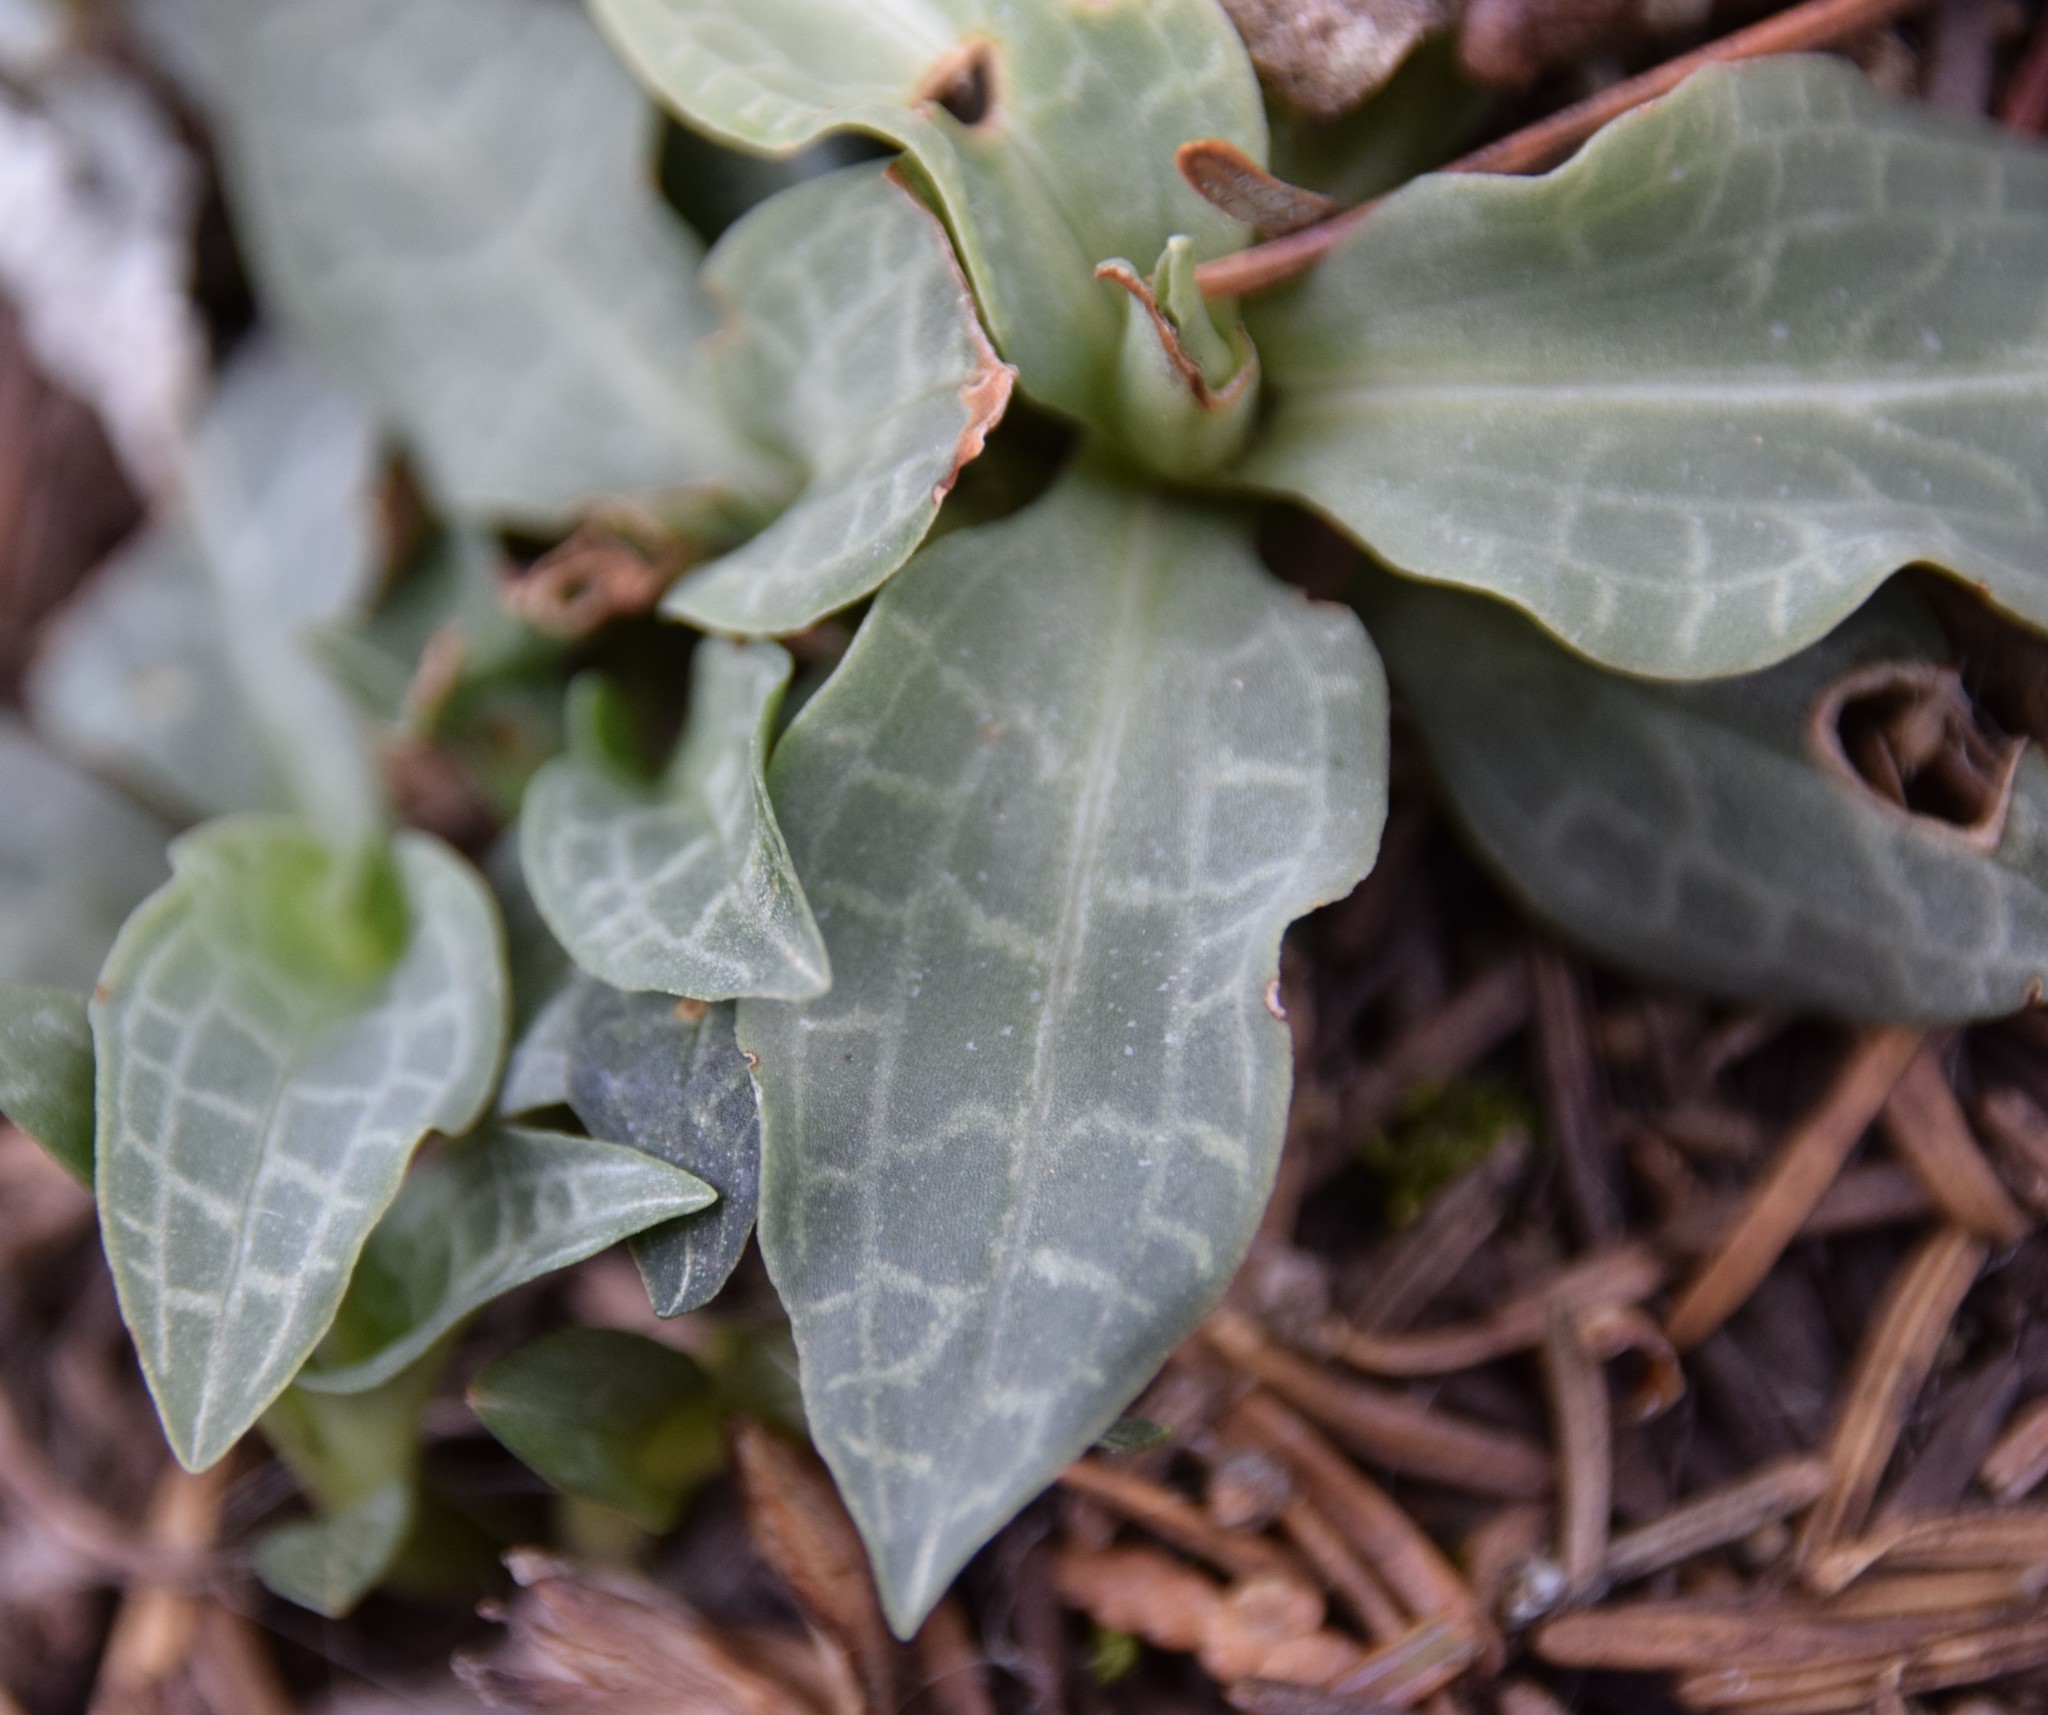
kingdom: Plantae
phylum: Tracheophyta
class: Liliopsida
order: Asparagales
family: Orchidaceae
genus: Goodyera
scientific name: Goodyera tesselata
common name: Checkered rattlesnake-plantain
